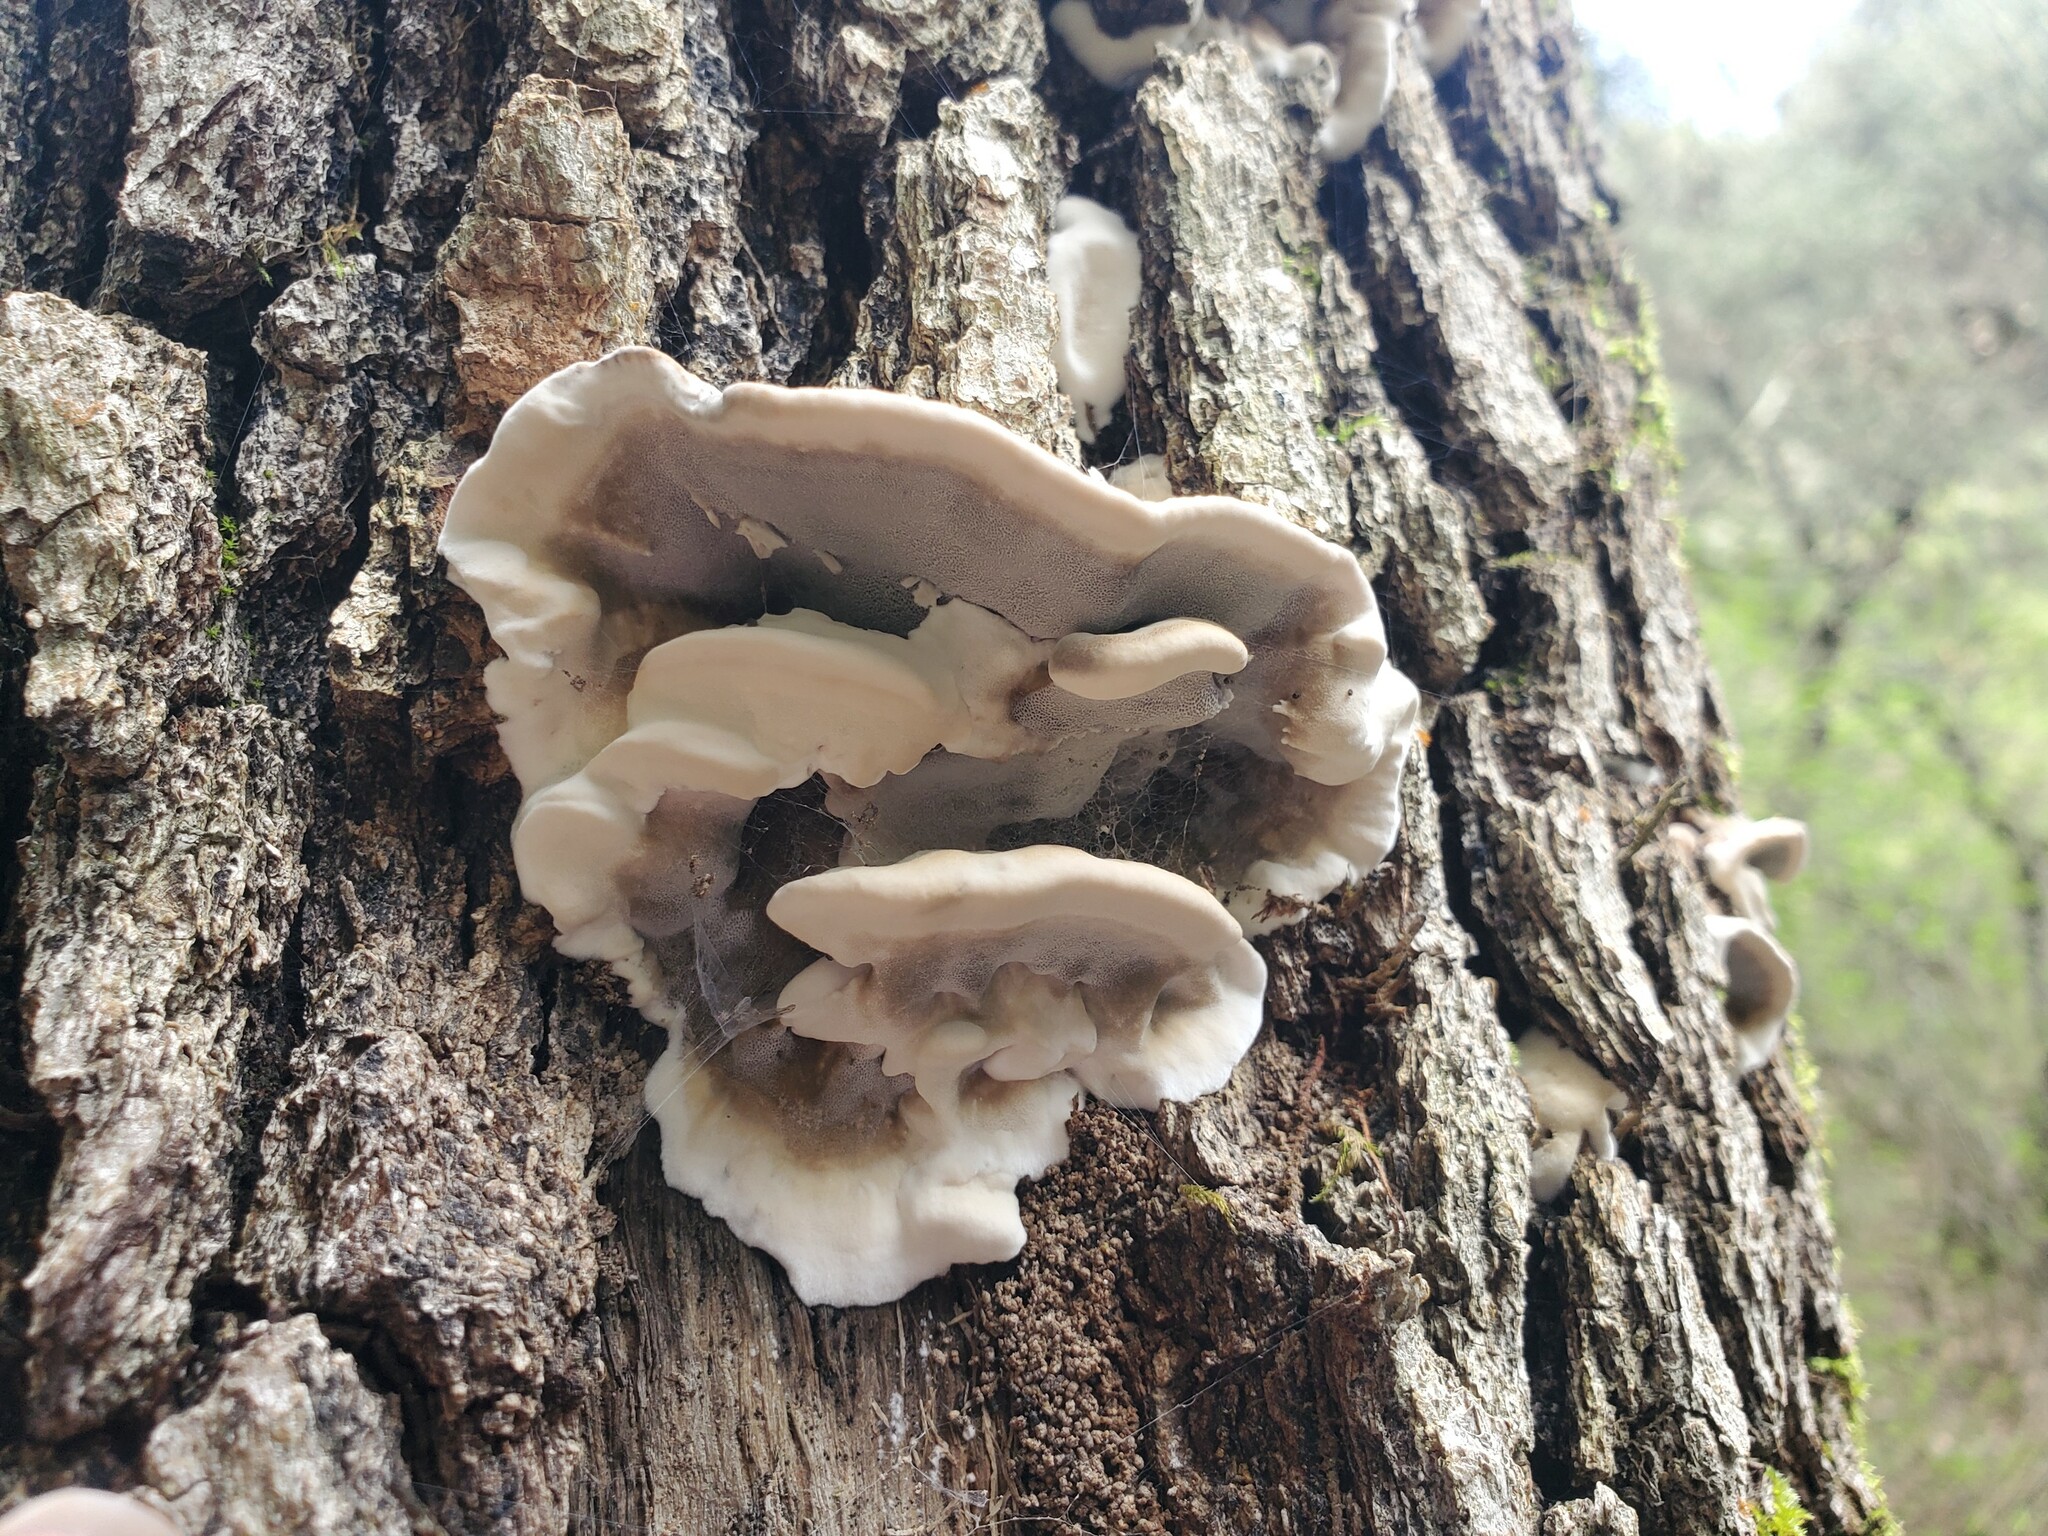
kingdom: Fungi
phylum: Basidiomycota
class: Agaricomycetes
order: Polyporales
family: Phanerochaetaceae
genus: Bjerkandera
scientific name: Bjerkandera adusta
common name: Smoky bracket
